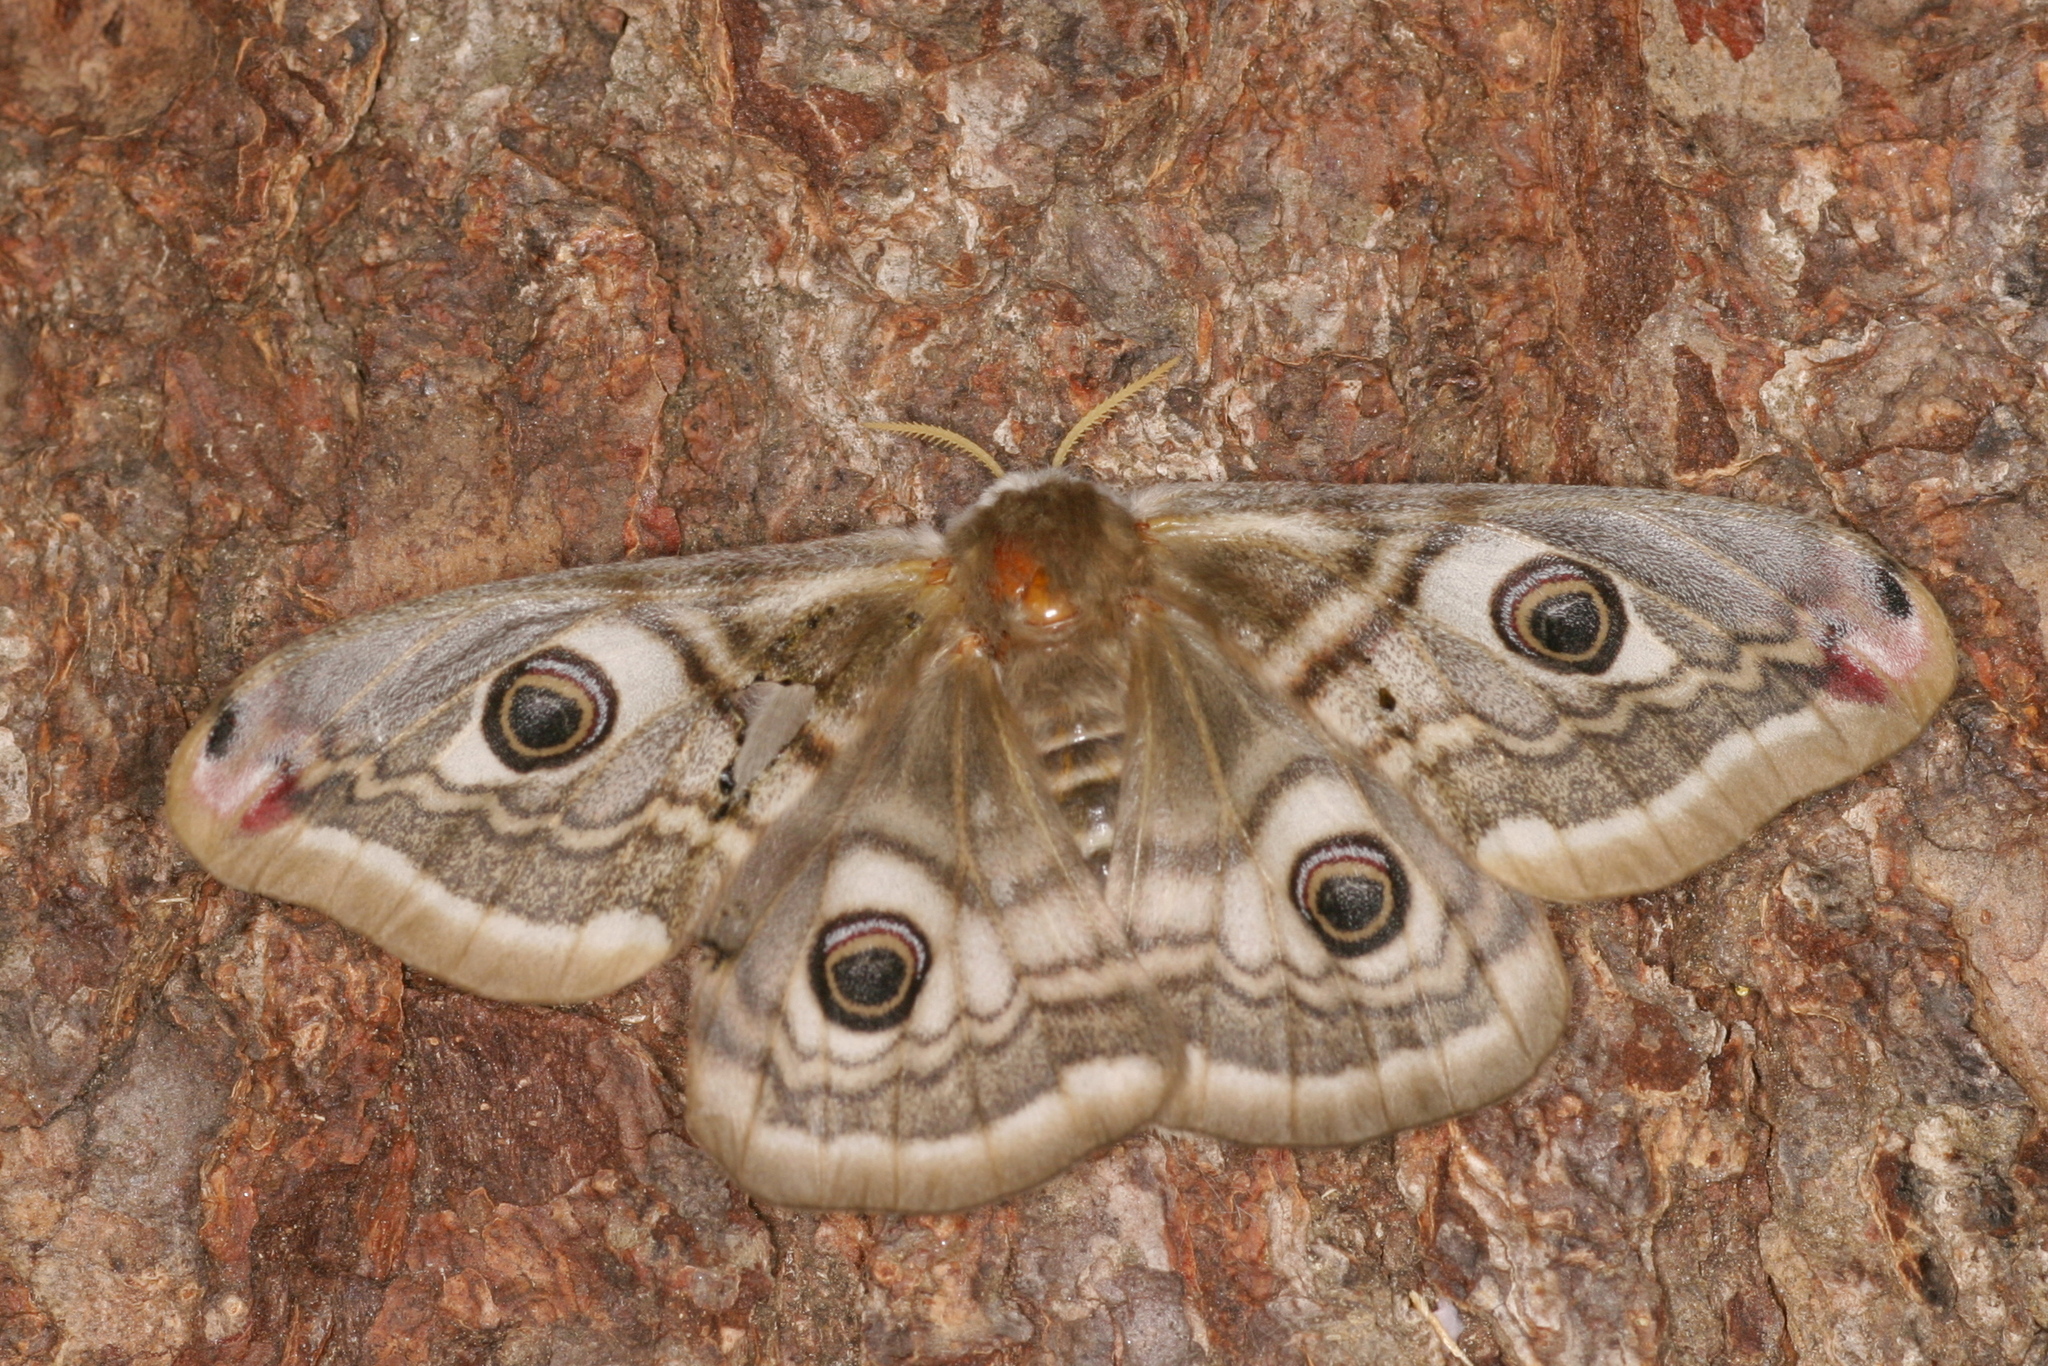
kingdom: Animalia
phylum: Arthropoda
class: Insecta
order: Lepidoptera
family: Saturniidae
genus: Saturnia
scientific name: Saturnia pavonia
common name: Emperor moth
